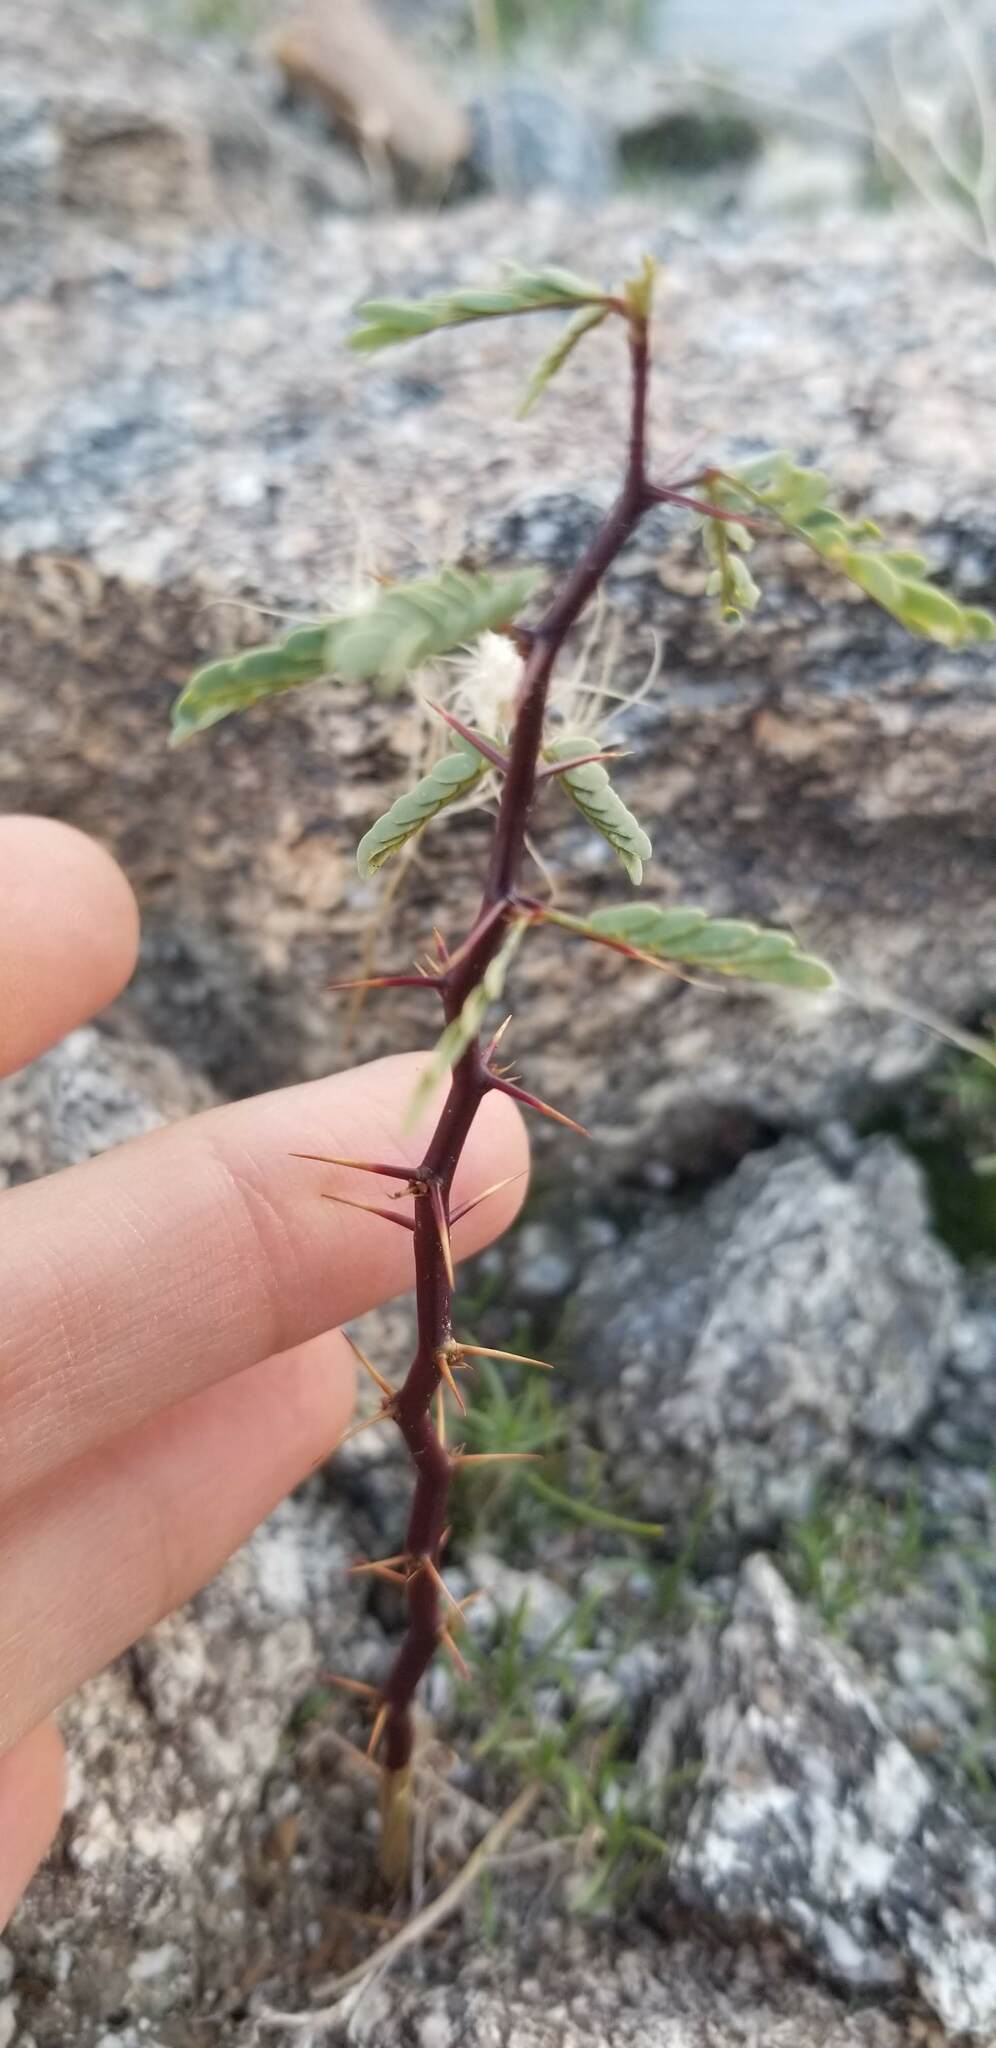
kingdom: Plantae
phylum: Tracheophyta
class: Magnoliopsida
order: Fabales
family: Fabaceae
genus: Prosopis
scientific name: Prosopis pubescens
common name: Screw-bean
